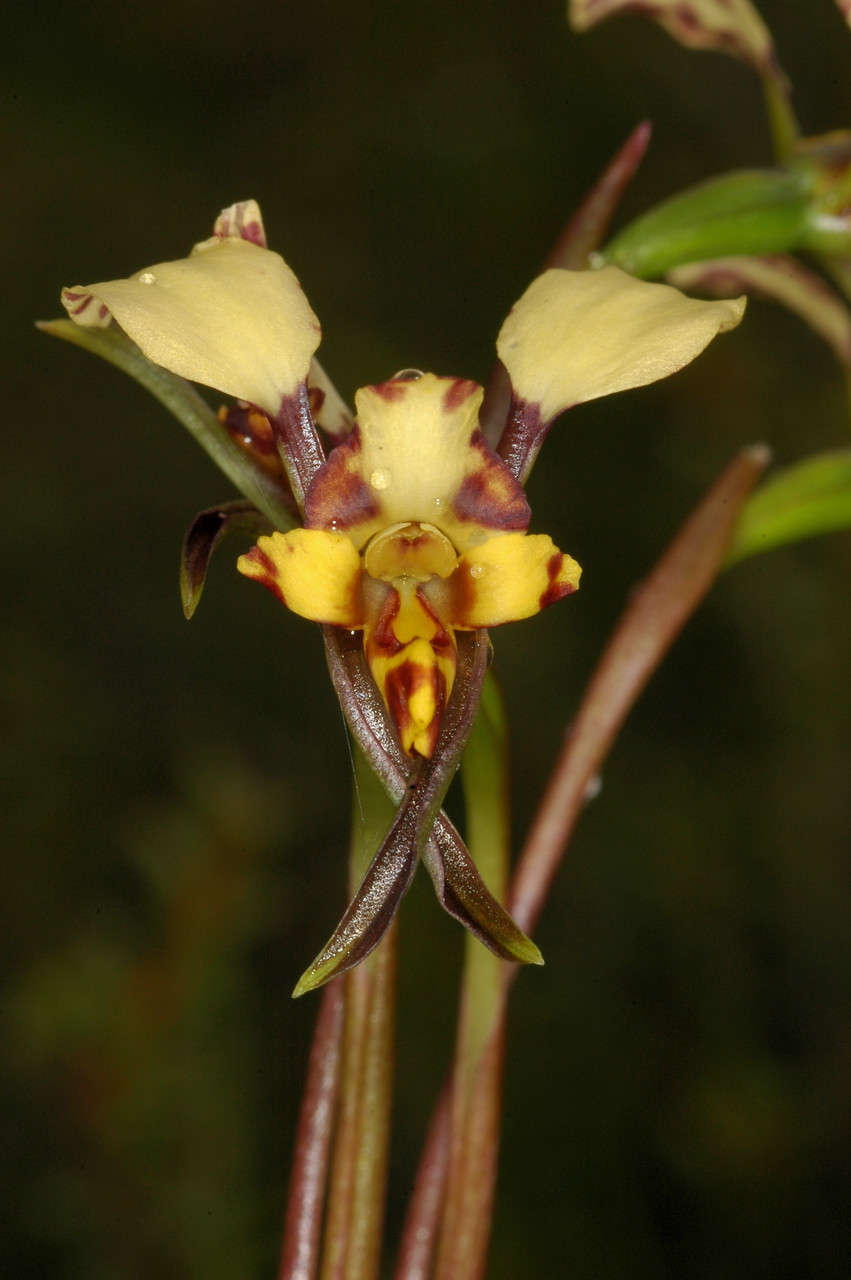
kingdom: Plantae
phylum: Tracheophyta
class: Liliopsida
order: Asparagales
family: Orchidaceae
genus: Diuris
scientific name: Diuris pardina
